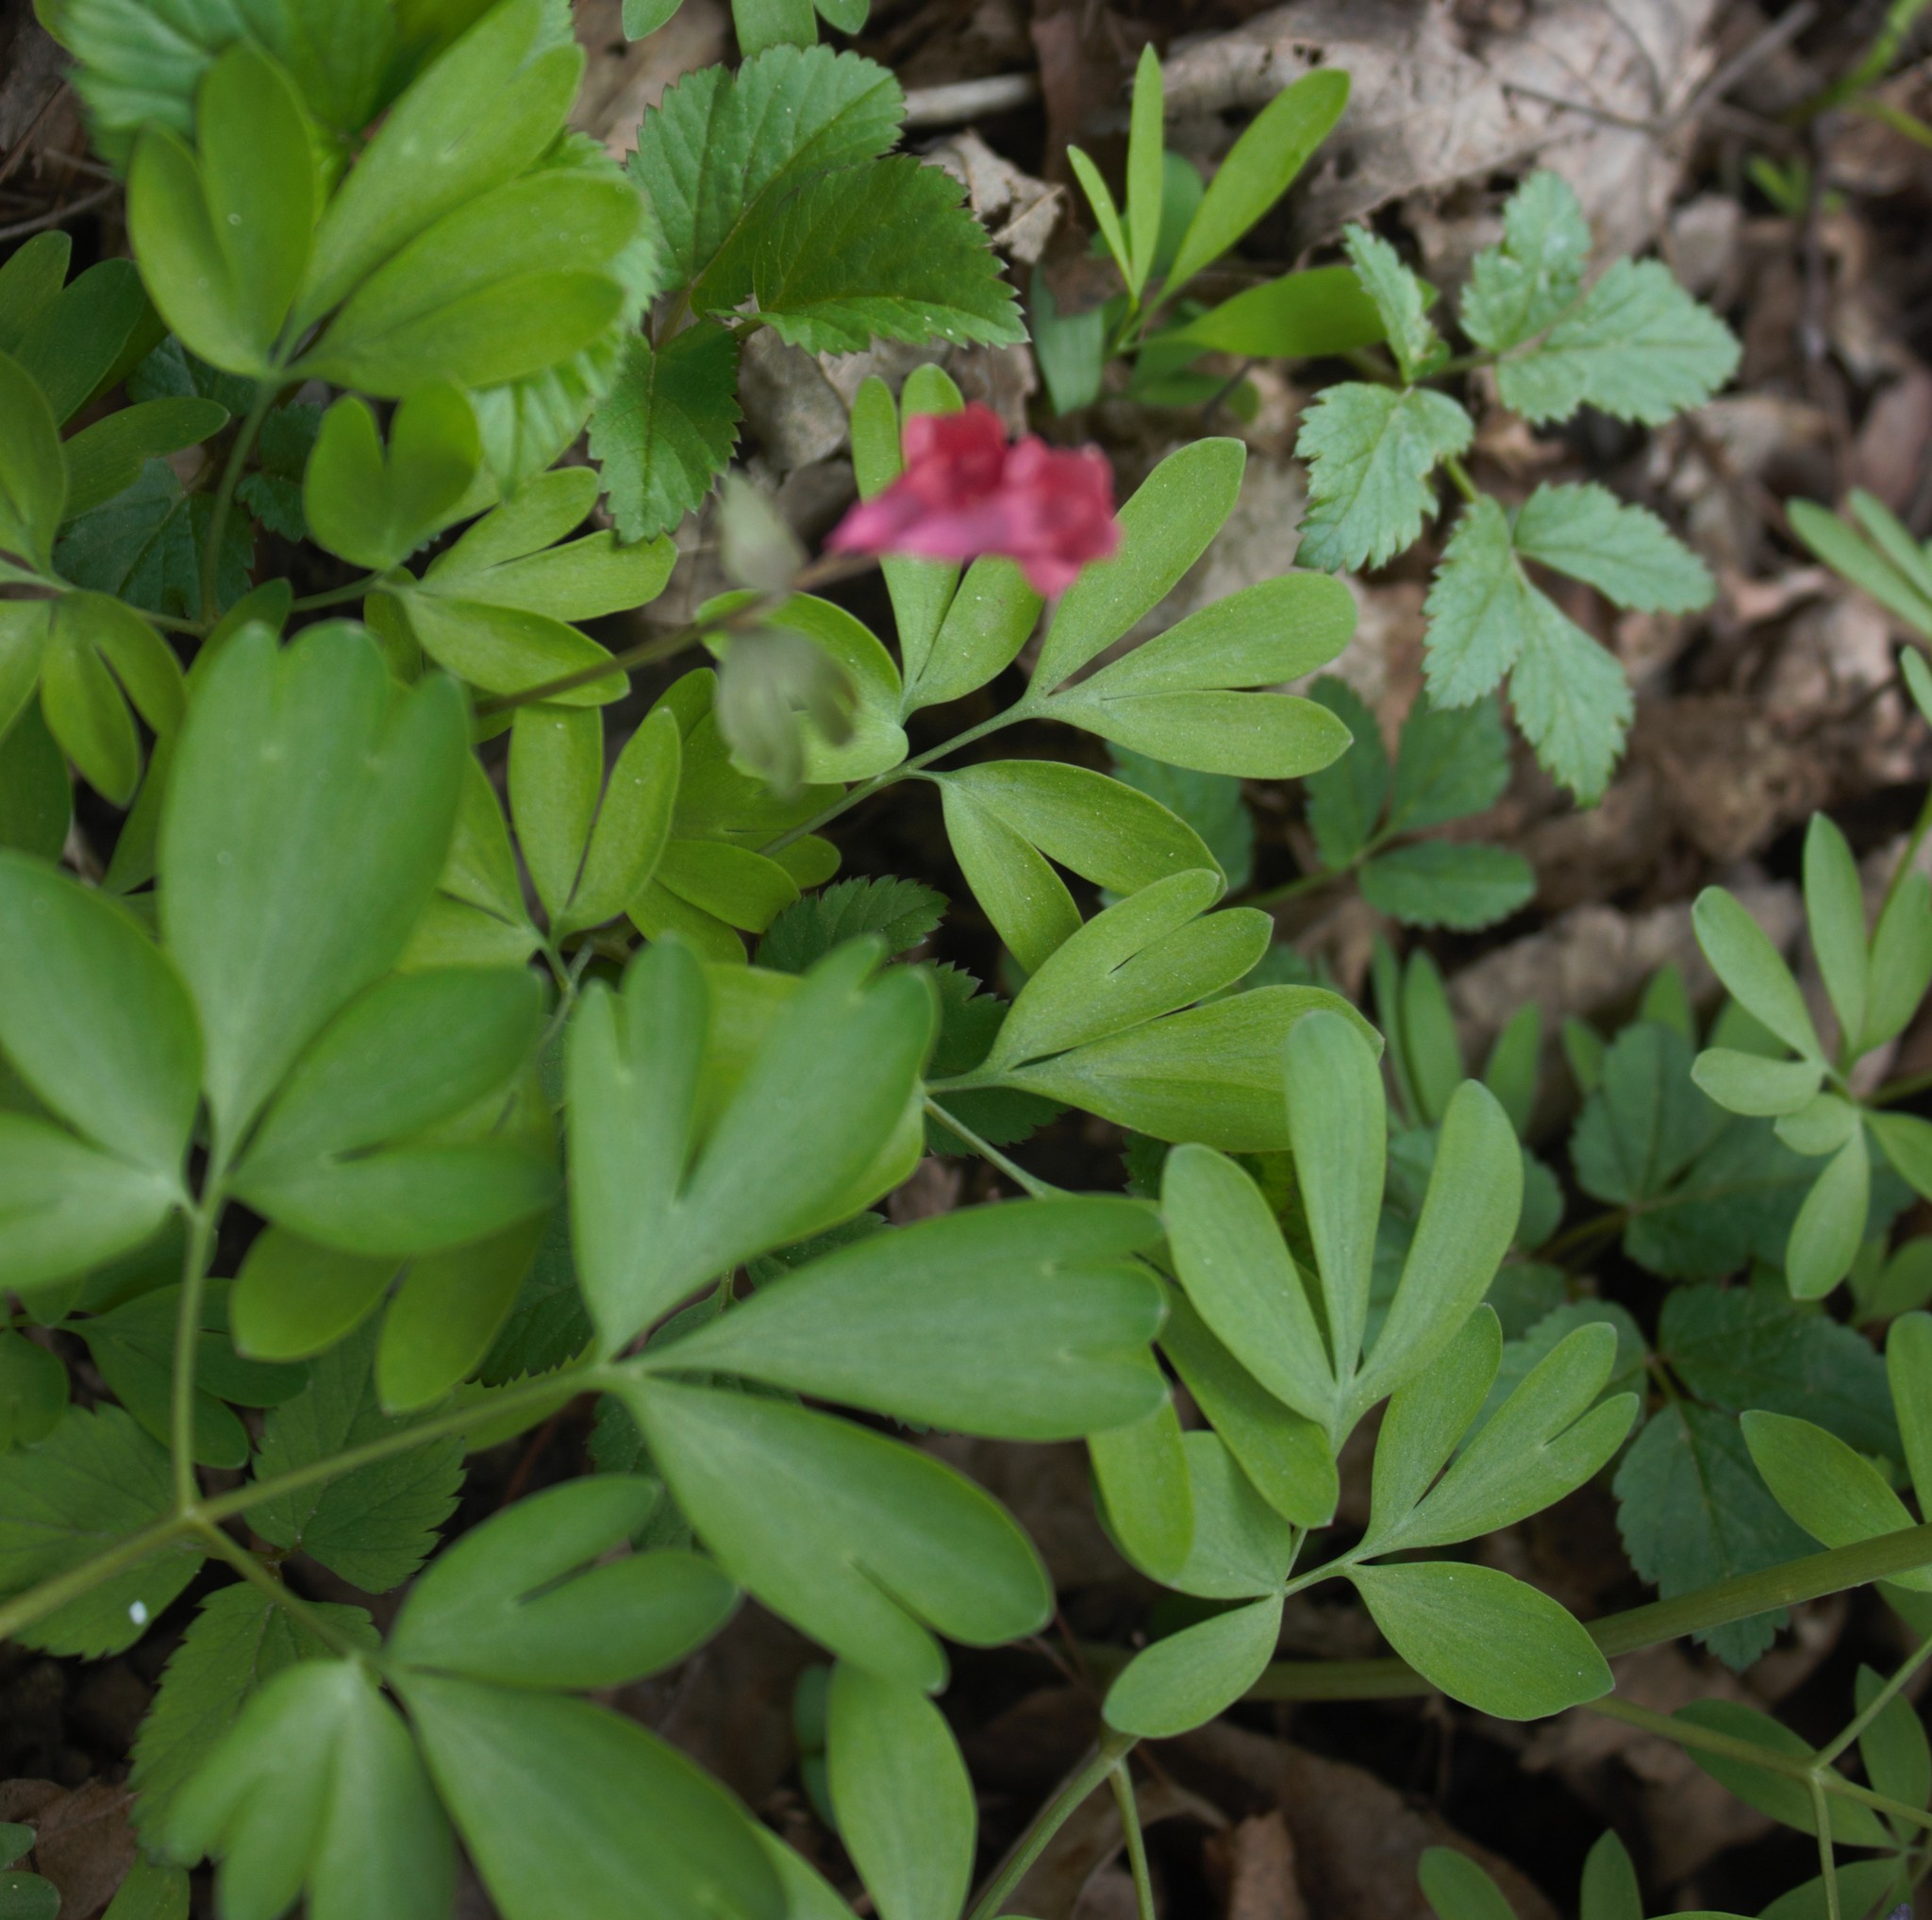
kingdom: Plantae
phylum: Tracheophyta
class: Magnoliopsida
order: Ranunculales
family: Papaveraceae
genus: Corydalis
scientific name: Corydalis solida
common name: Bird-in-a-bush
